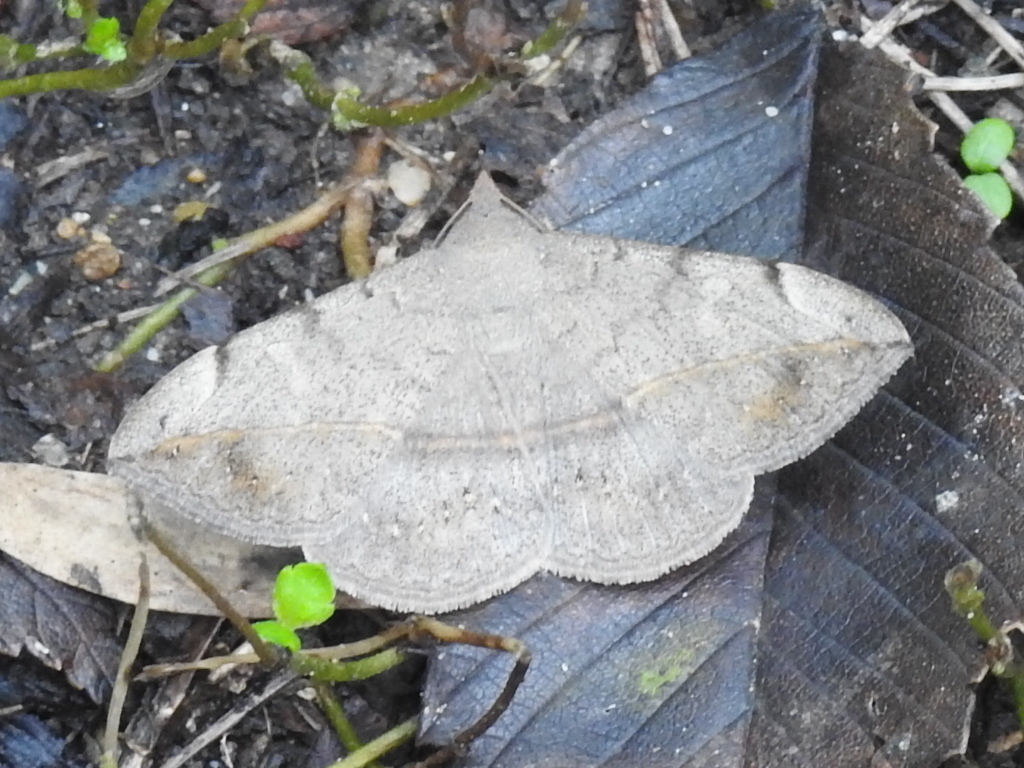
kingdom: Animalia
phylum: Arthropoda
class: Insecta
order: Lepidoptera
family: Erebidae
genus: Anticarsia
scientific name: Anticarsia gemmatalis
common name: Cutworm moth
